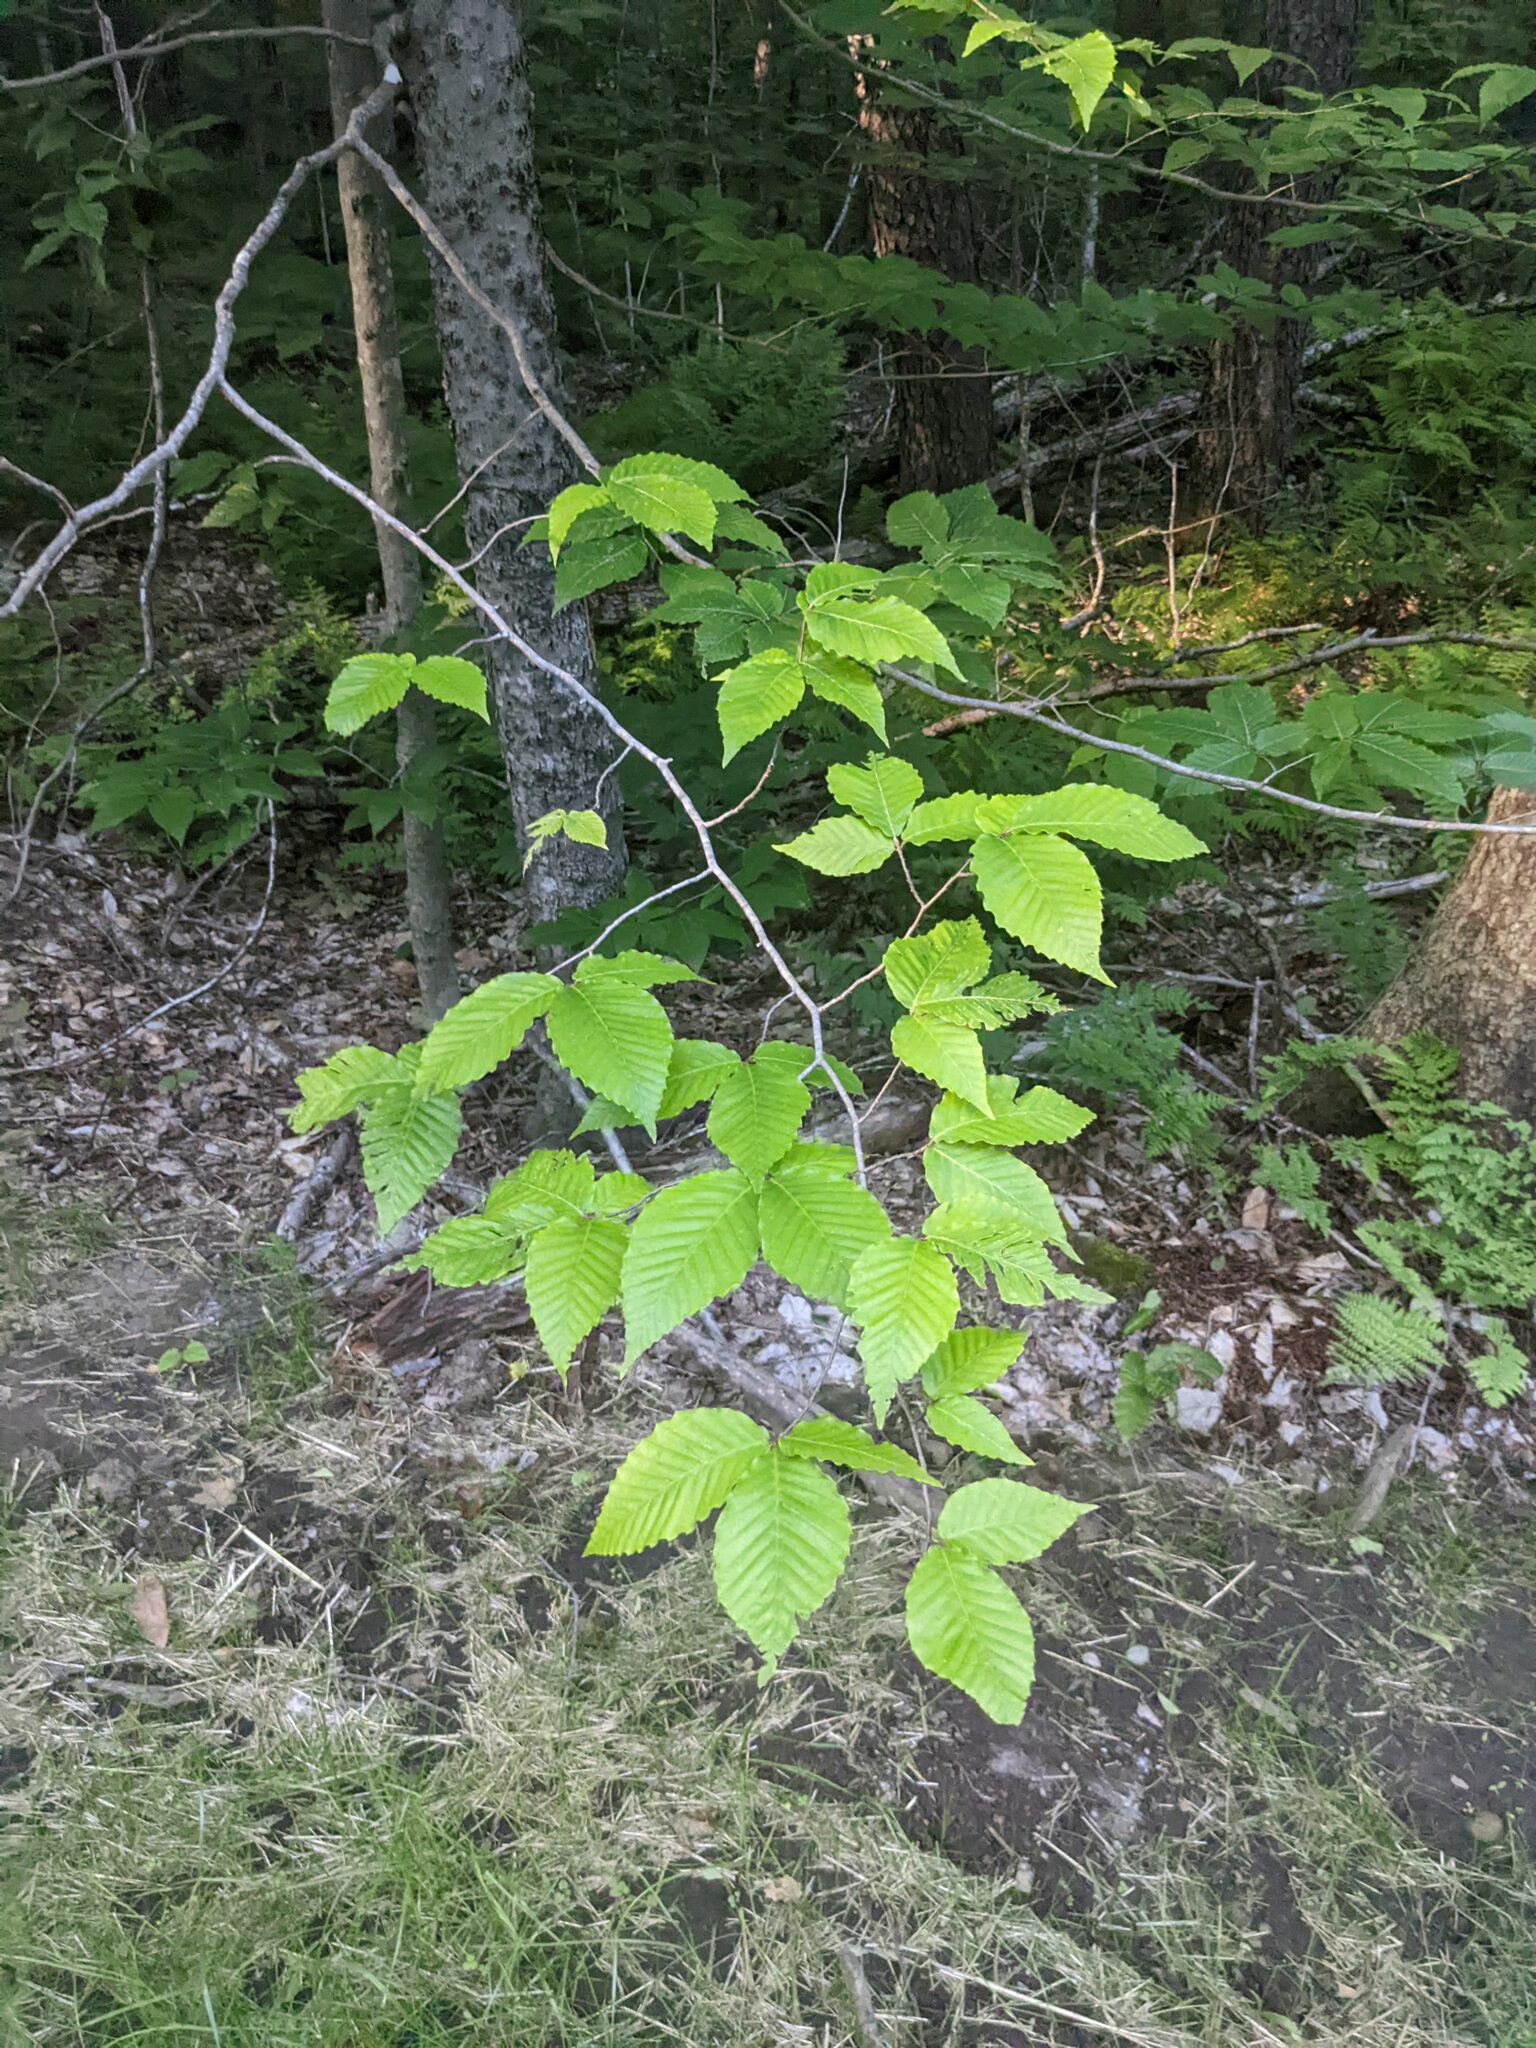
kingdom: Plantae
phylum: Tracheophyta
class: Magnoliopsida
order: Fagales
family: Fagaceae
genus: Fagus
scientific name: Fagus grandifolia
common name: American beech
